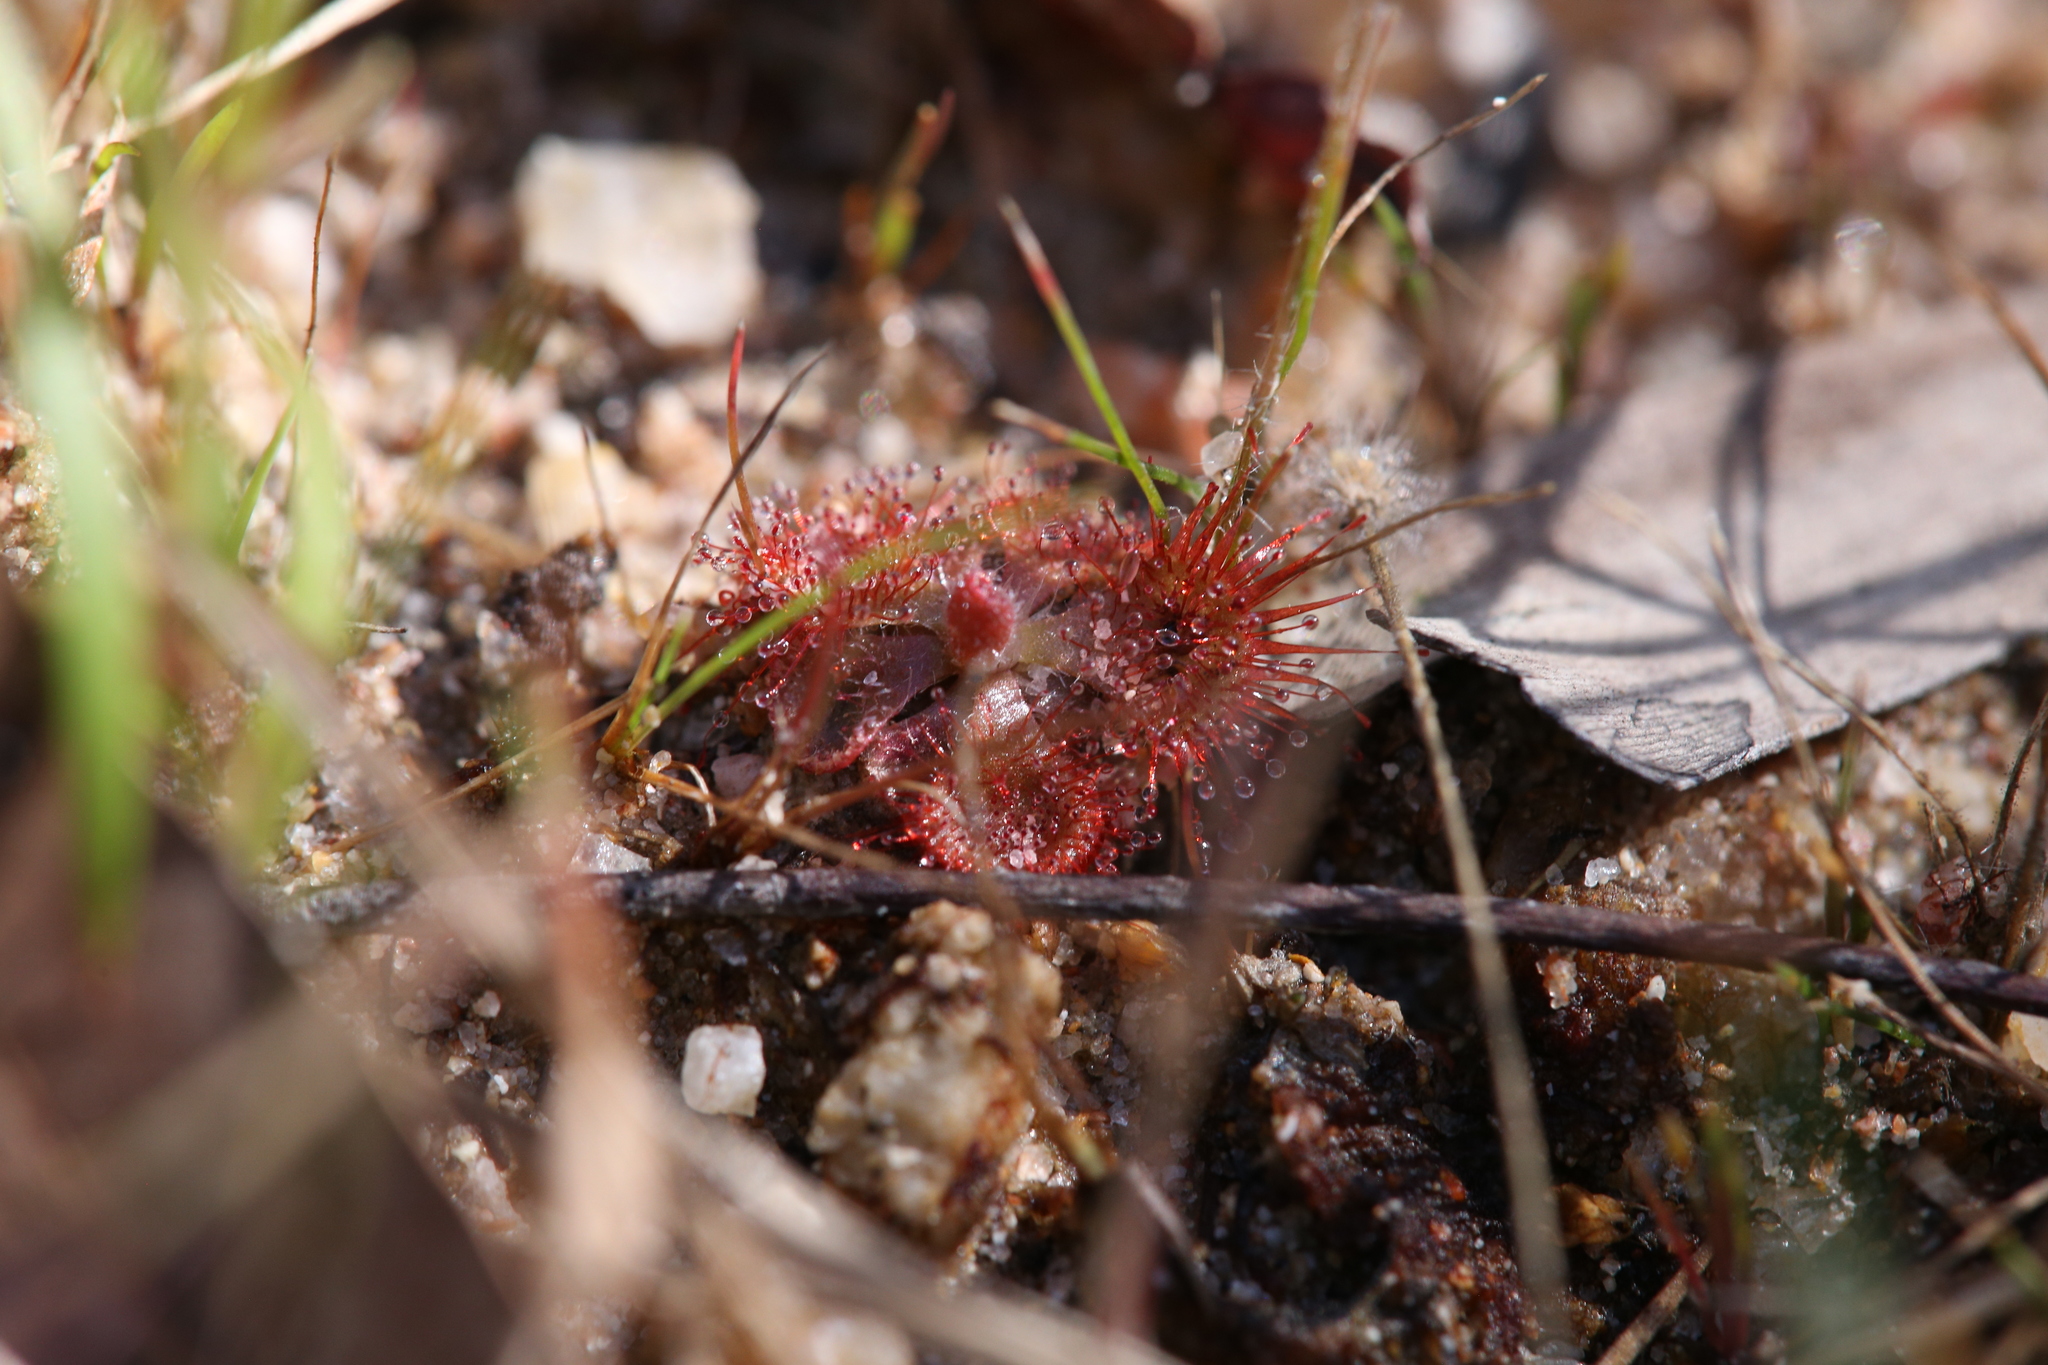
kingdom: Plantae
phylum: Tracheophyta
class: Magnoliopsida
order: Caryophyllales
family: Droseraceae
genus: Drosera
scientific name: Drosera spatulata
